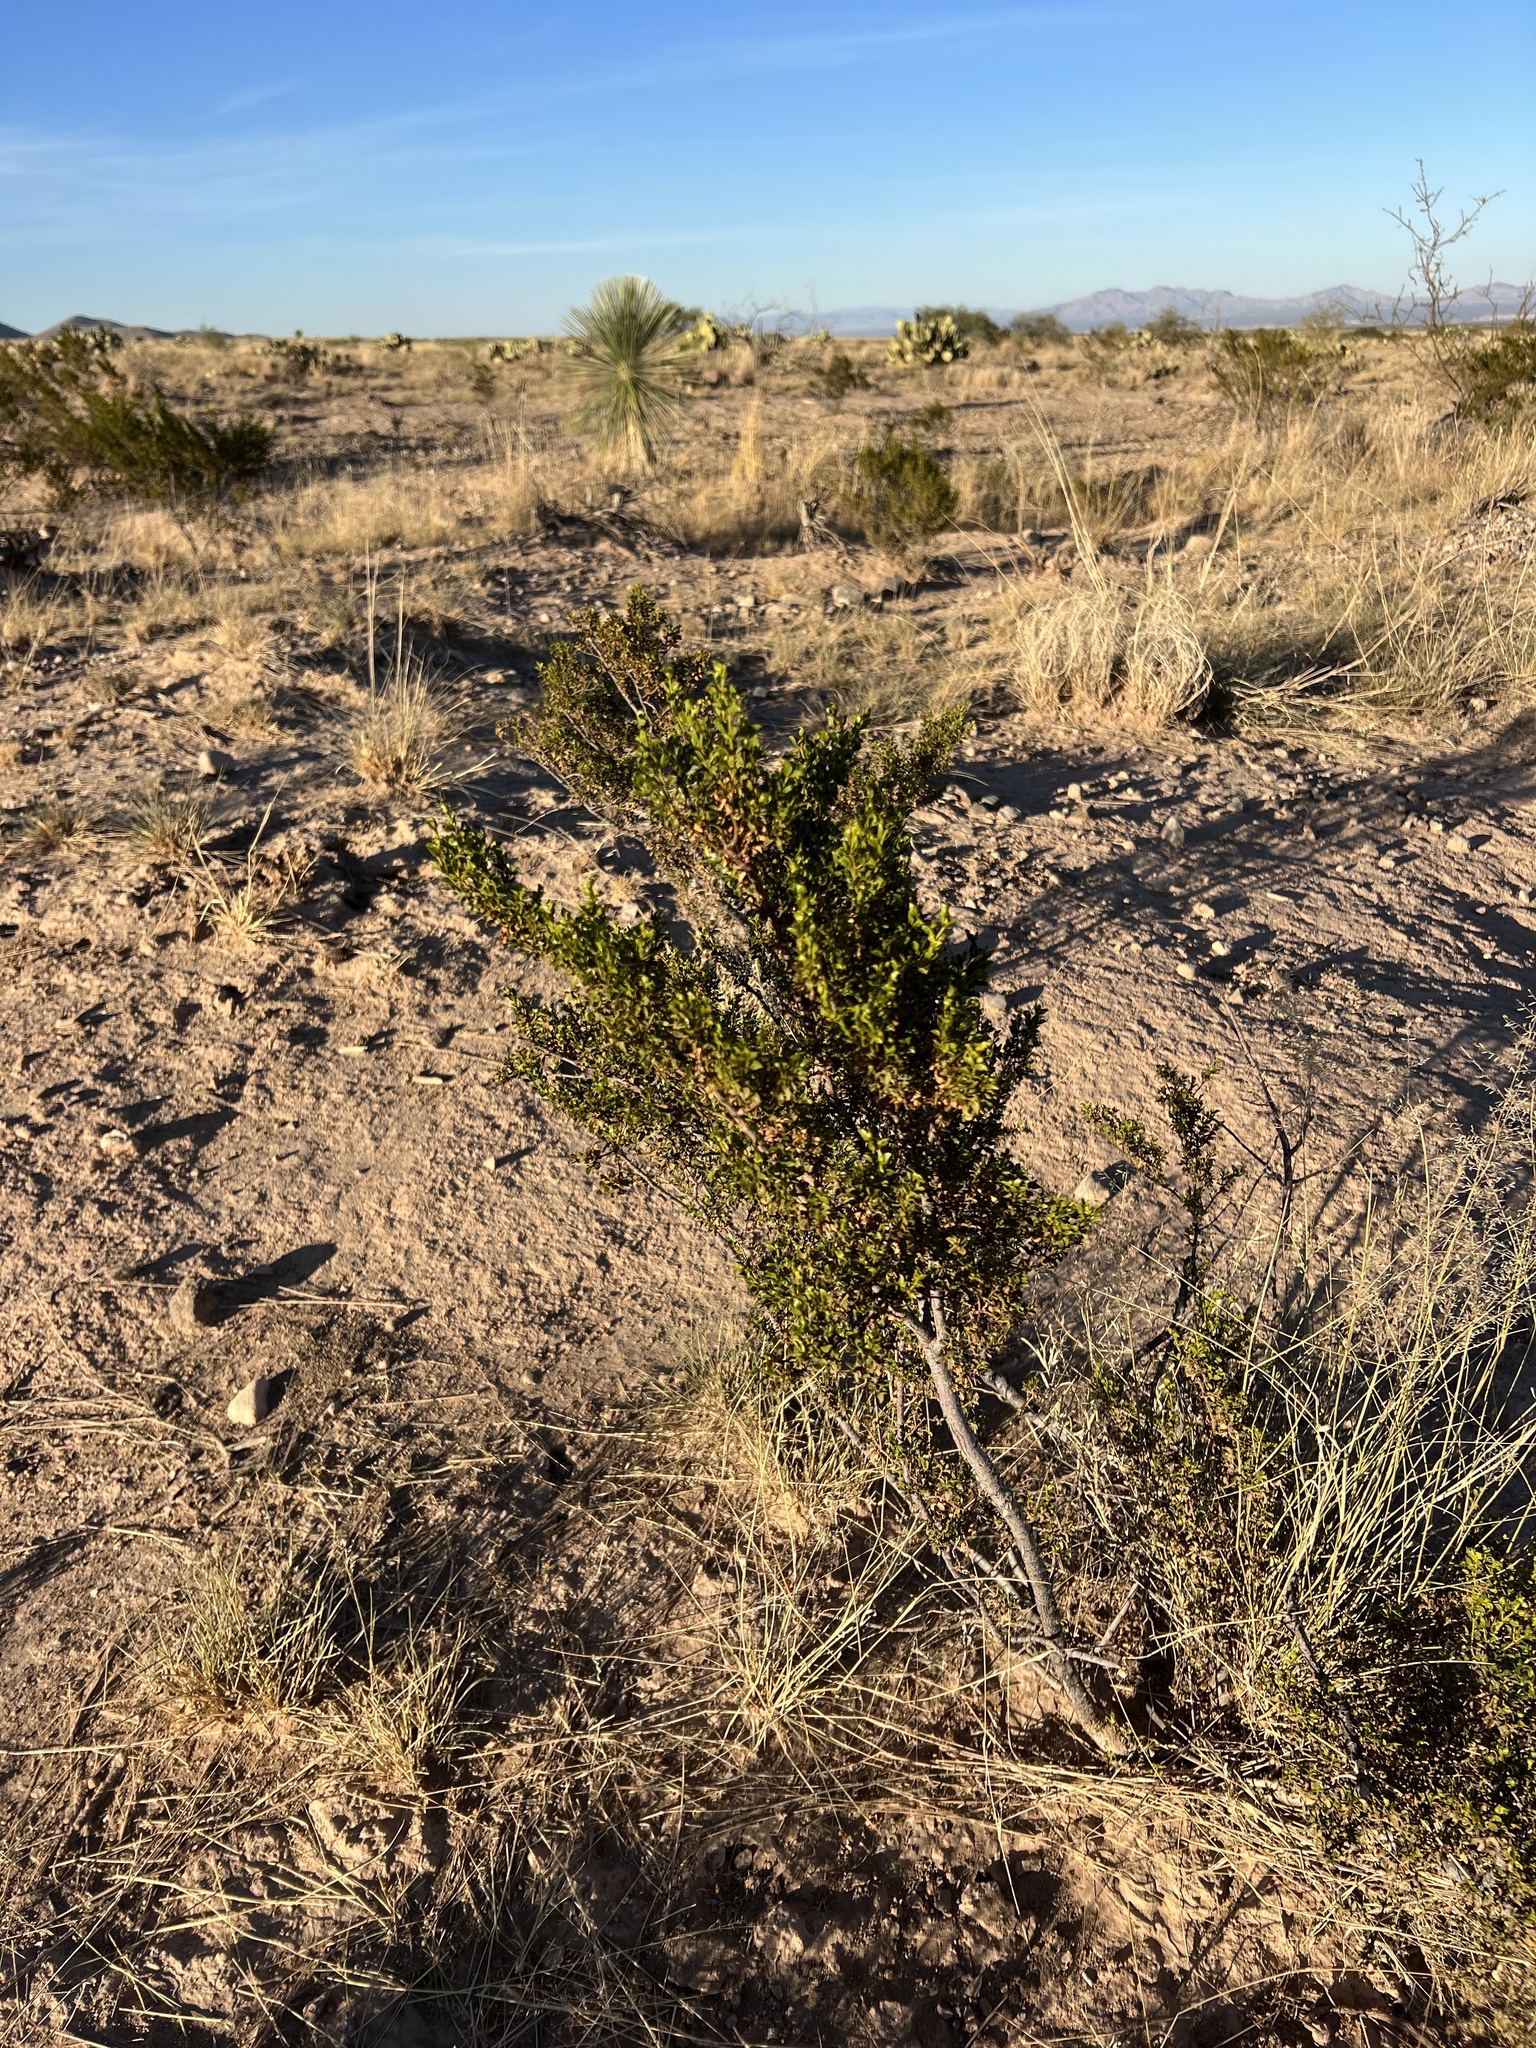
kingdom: Plantae
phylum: Tracheophyta
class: Magnoliopsida
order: Zygophyllales
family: Zygophyllaceae
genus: Larrea
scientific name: Larrea tridentata
